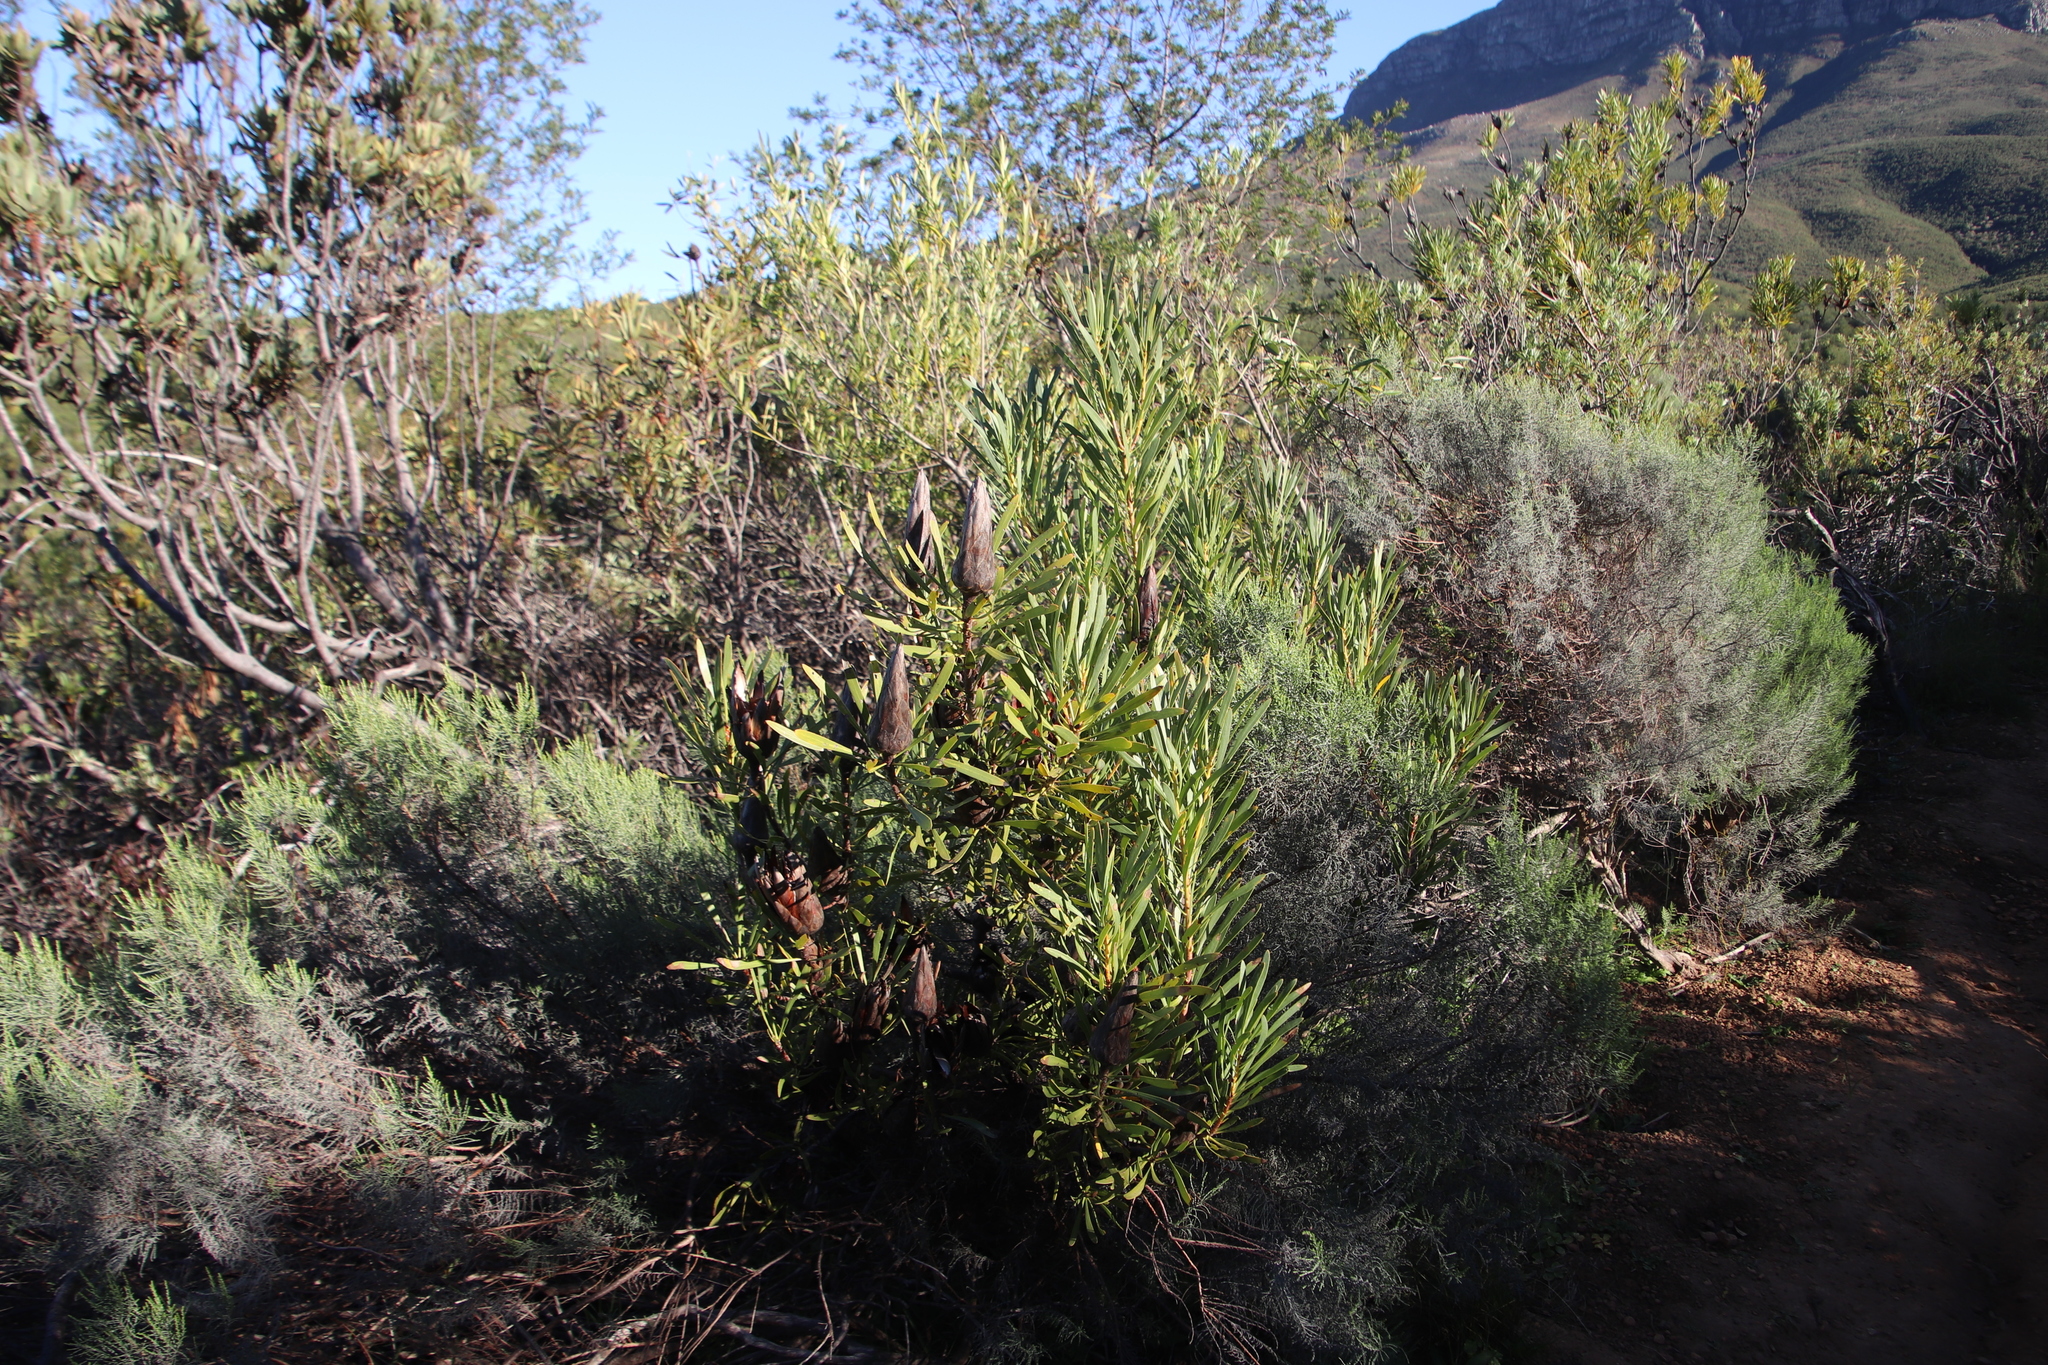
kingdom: Plantae
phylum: Tracheophyta
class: Magnoliopsida
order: Proteales
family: Proteaceae
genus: Protea
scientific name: Protea repens
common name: Sugarbush
